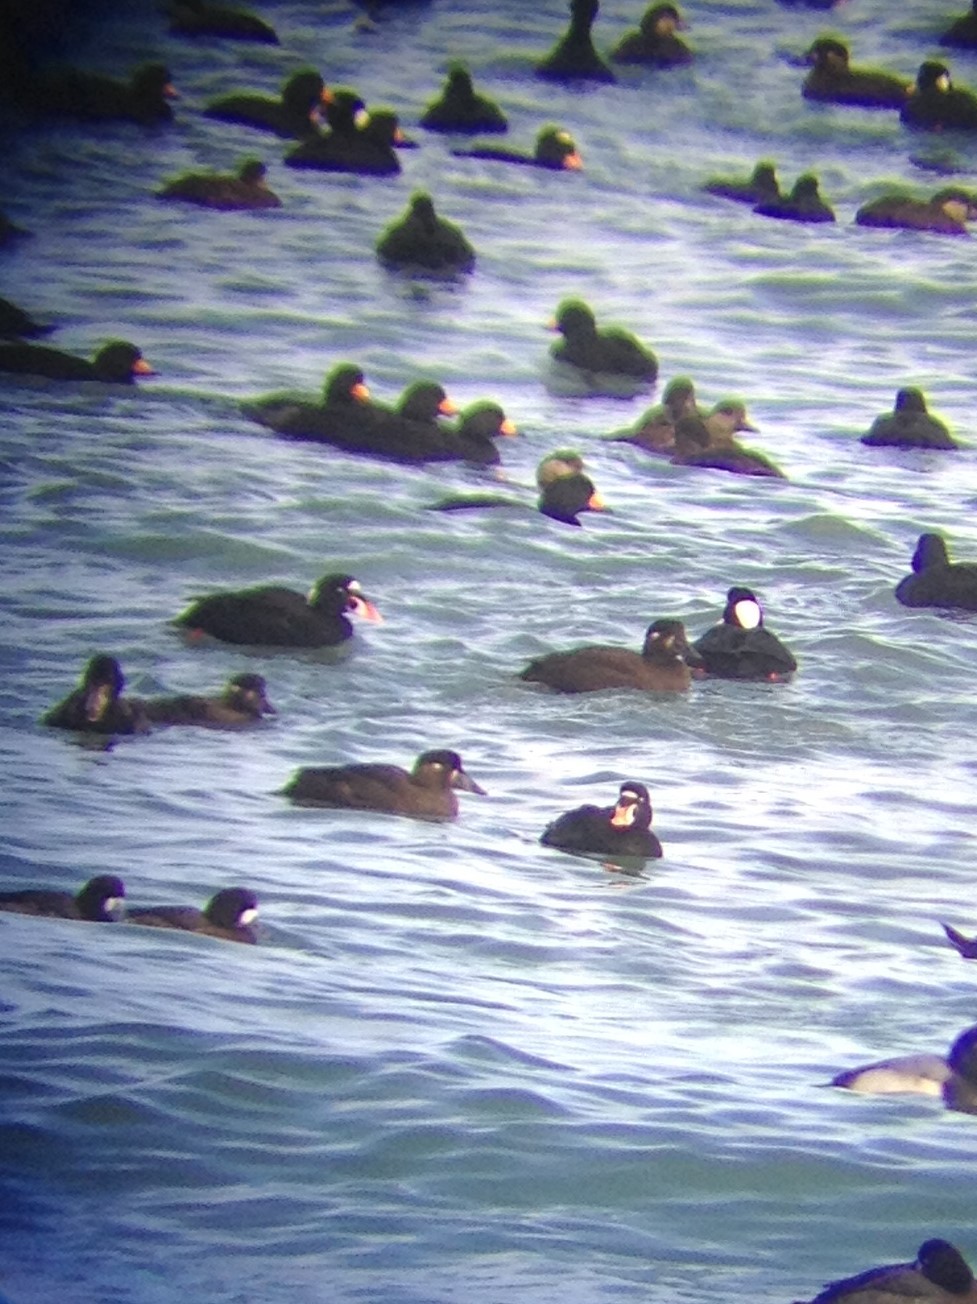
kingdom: Animalia
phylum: Chordata
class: Aves
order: Anseriformes
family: Anatidae
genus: Melanitta
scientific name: Melanitta perspicillata
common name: Surf scoter
